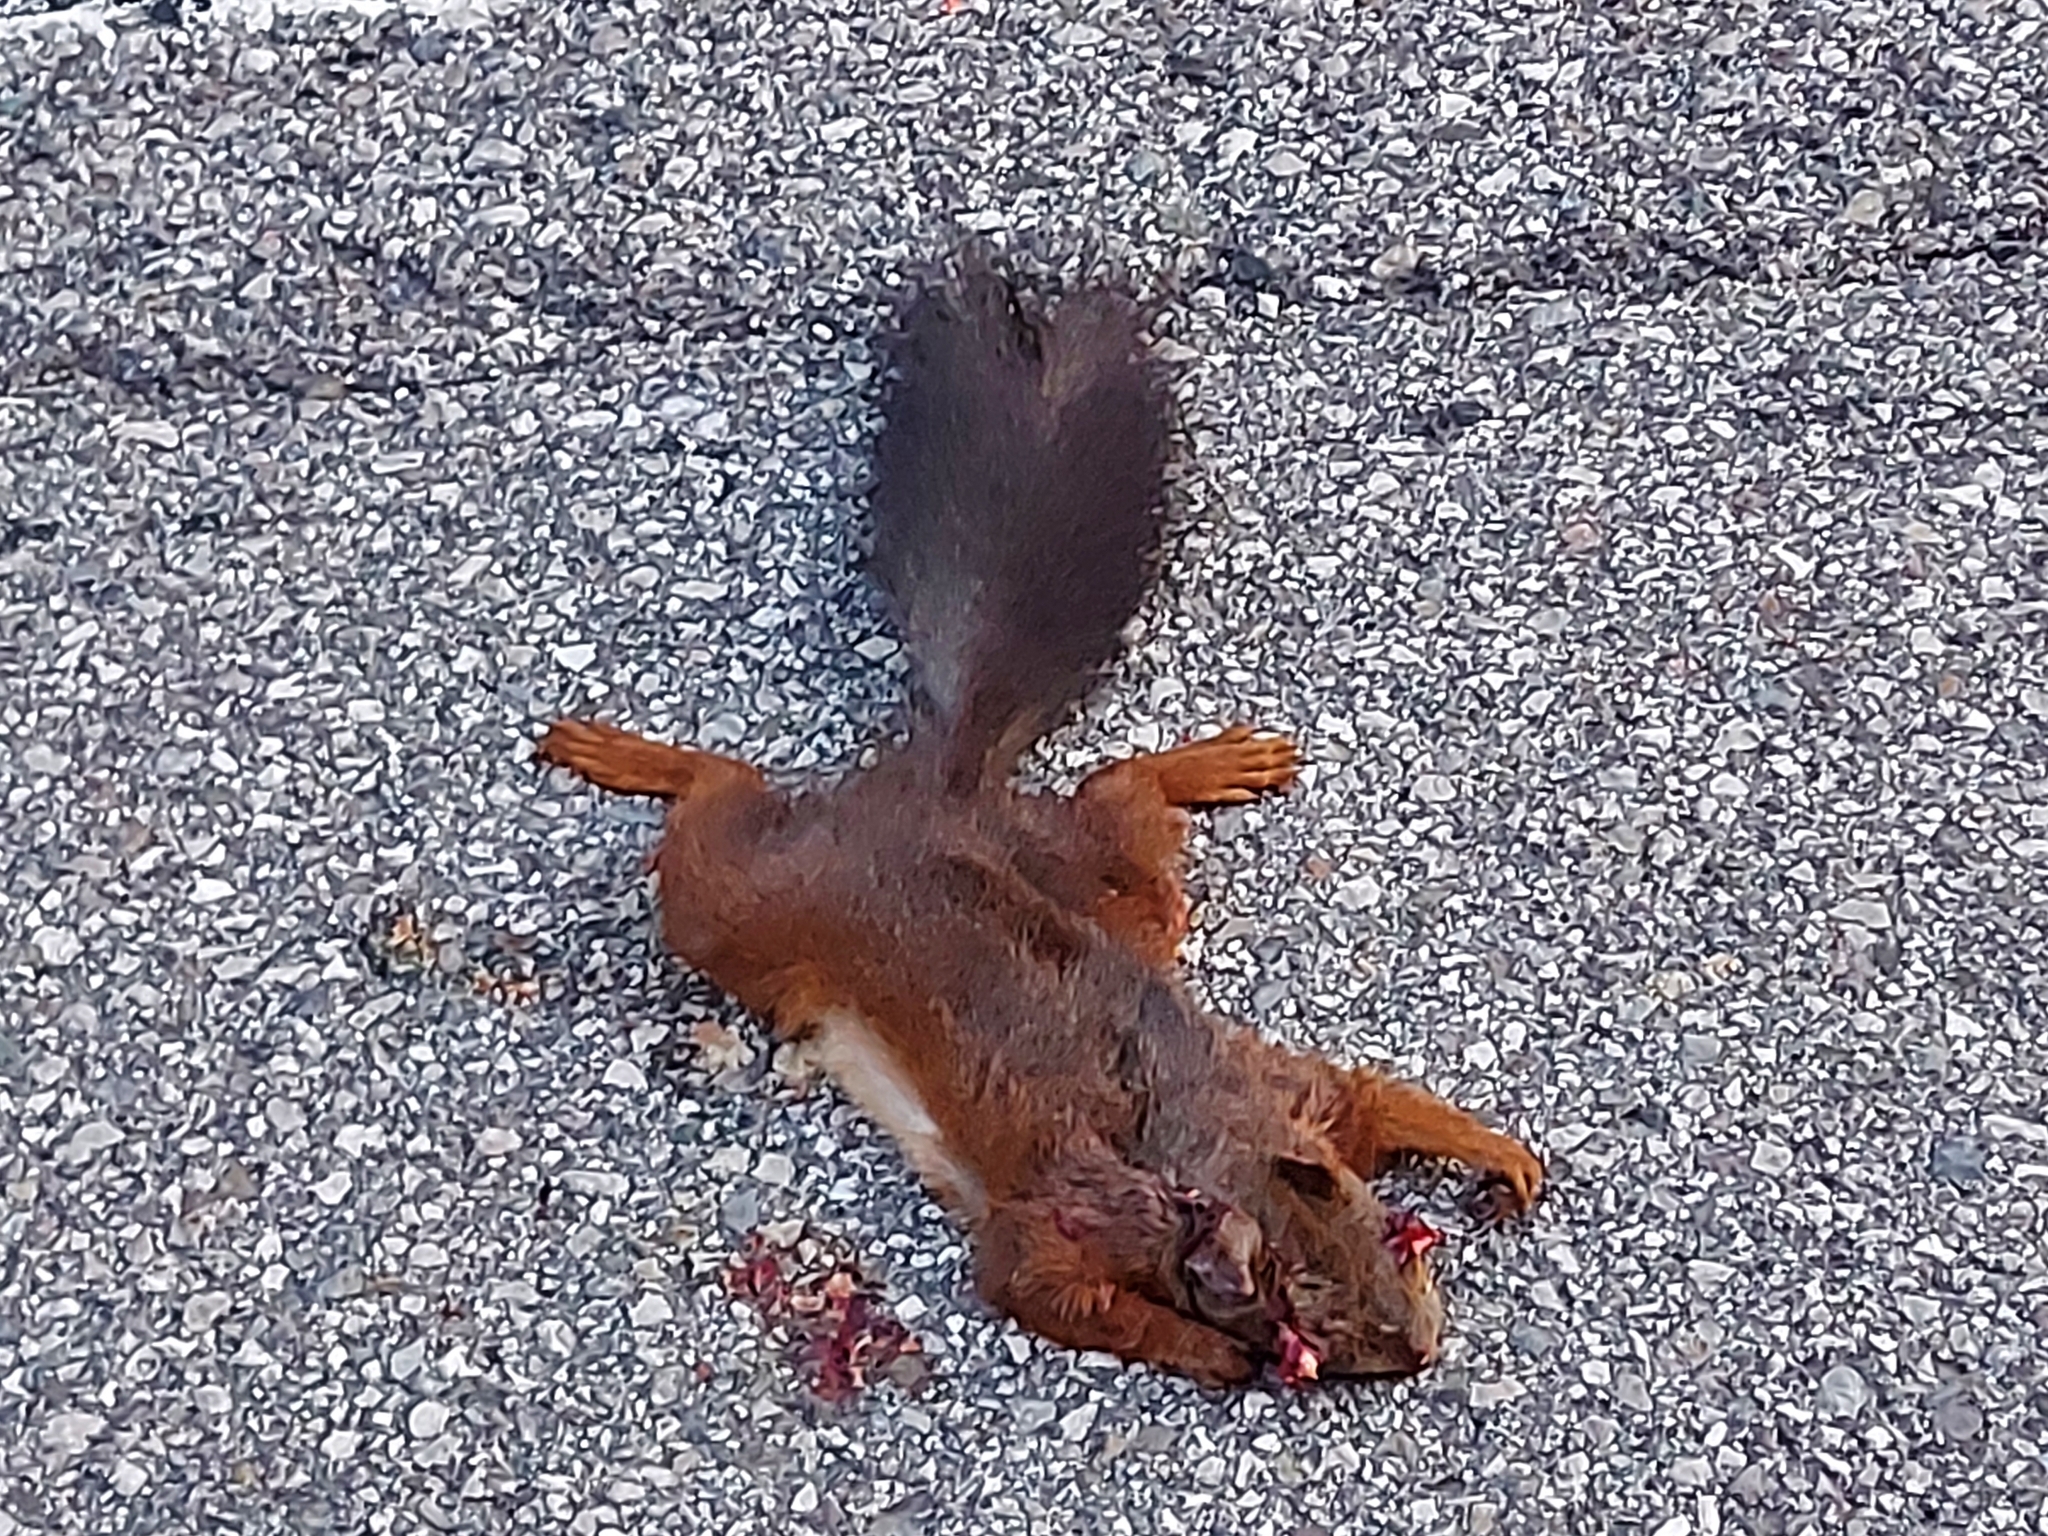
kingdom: Animalia
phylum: Chordata
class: Mammalia
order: Rodentia
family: Sciuridae
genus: Sciurus
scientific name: Sciurus vulgaris
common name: Eurasian red squirrel
